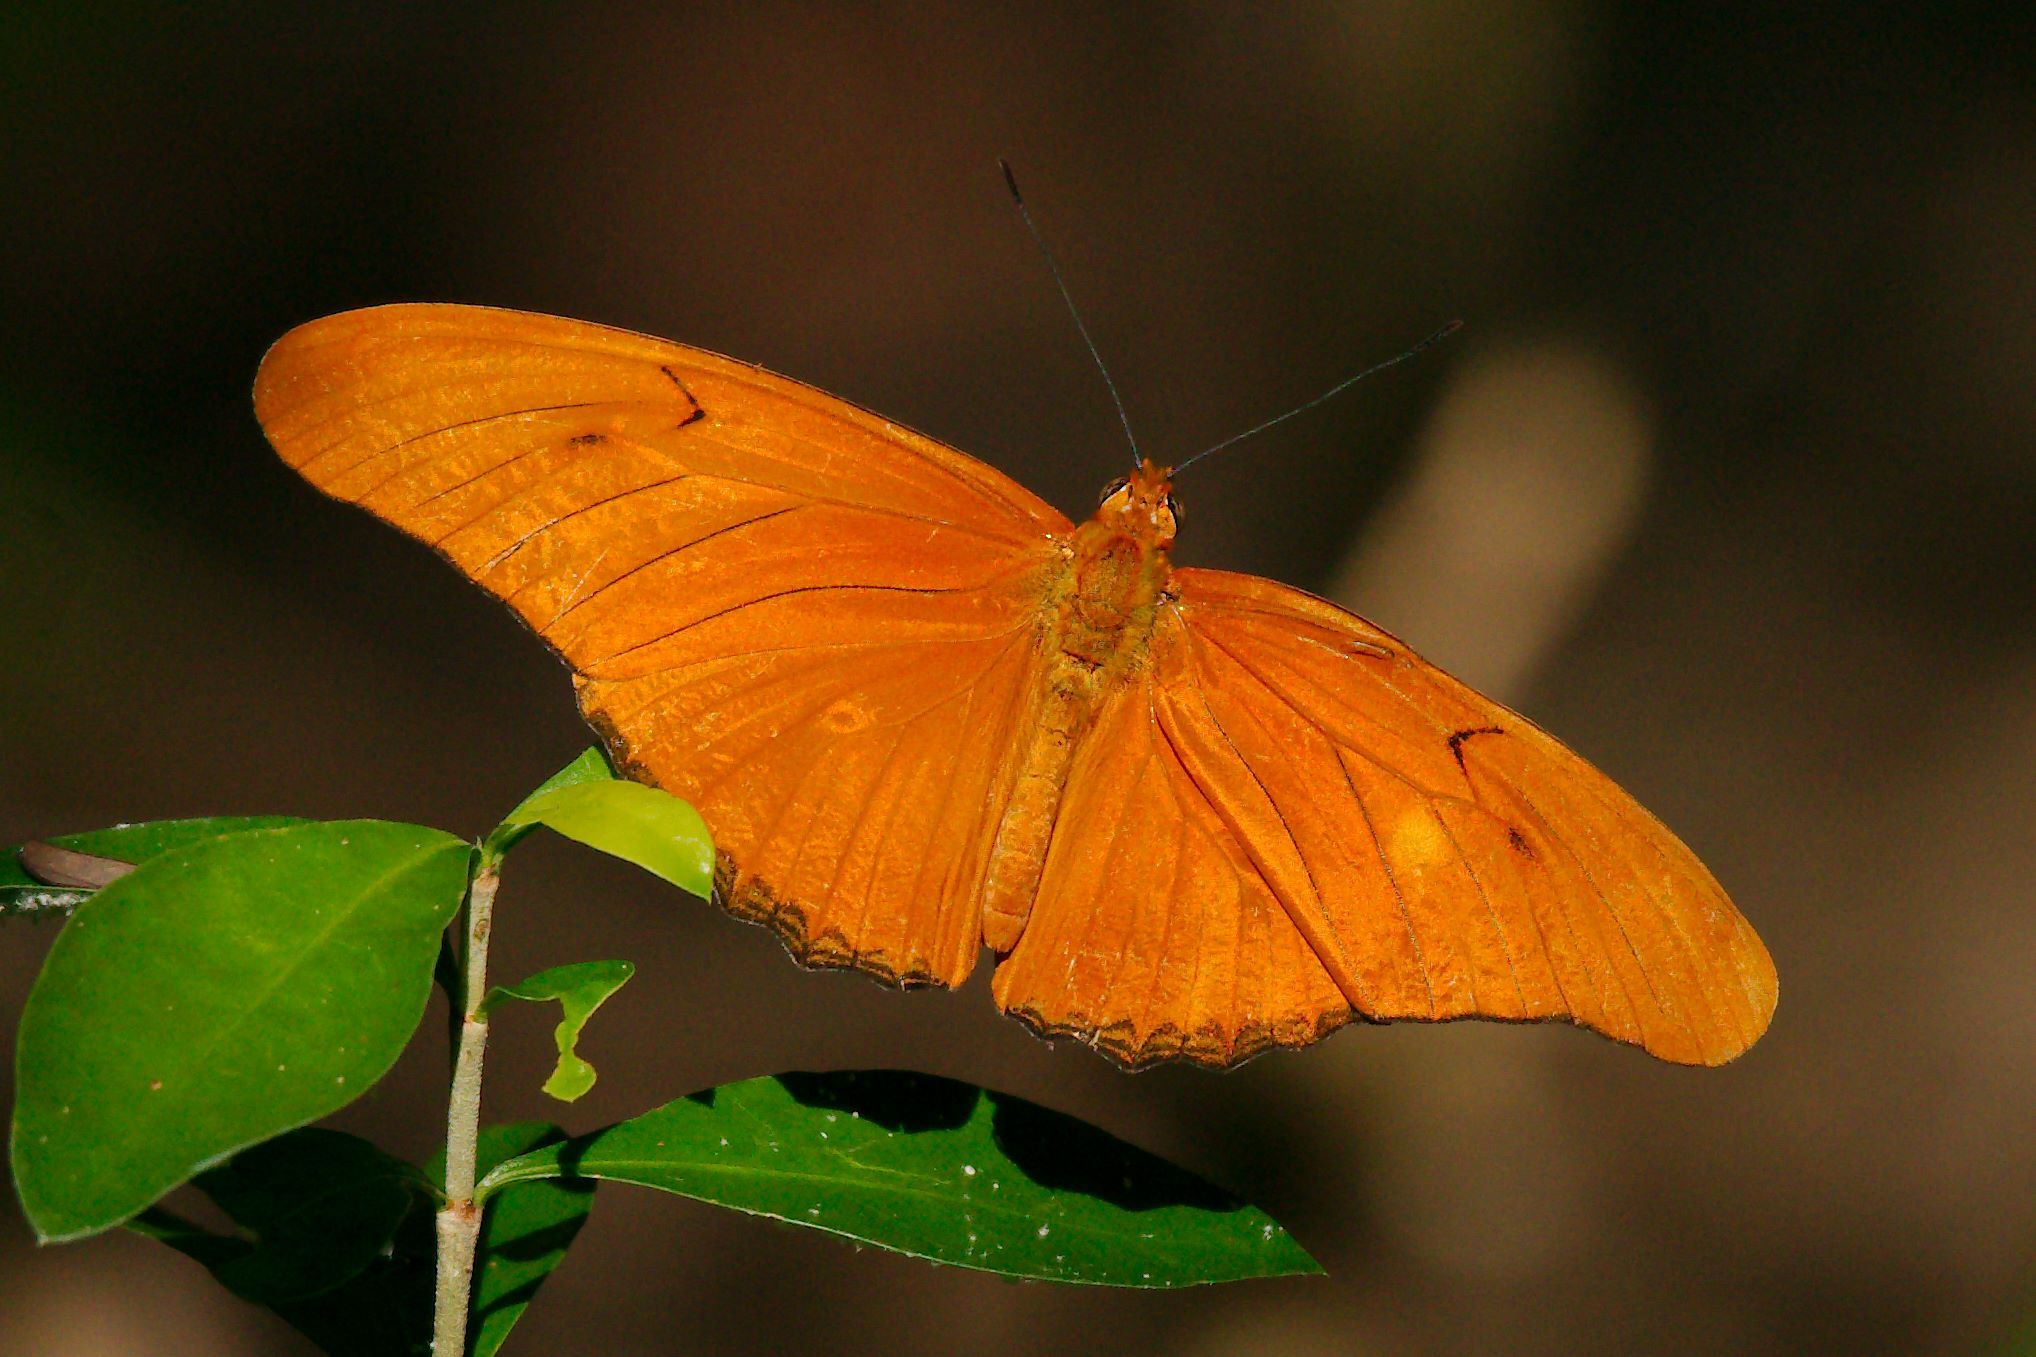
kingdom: Animalia
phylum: Arthropoda
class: Insecta
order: Lepidoptera
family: Nymphalidae
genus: Dryas
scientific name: Dryas iulia
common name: Flambeau
